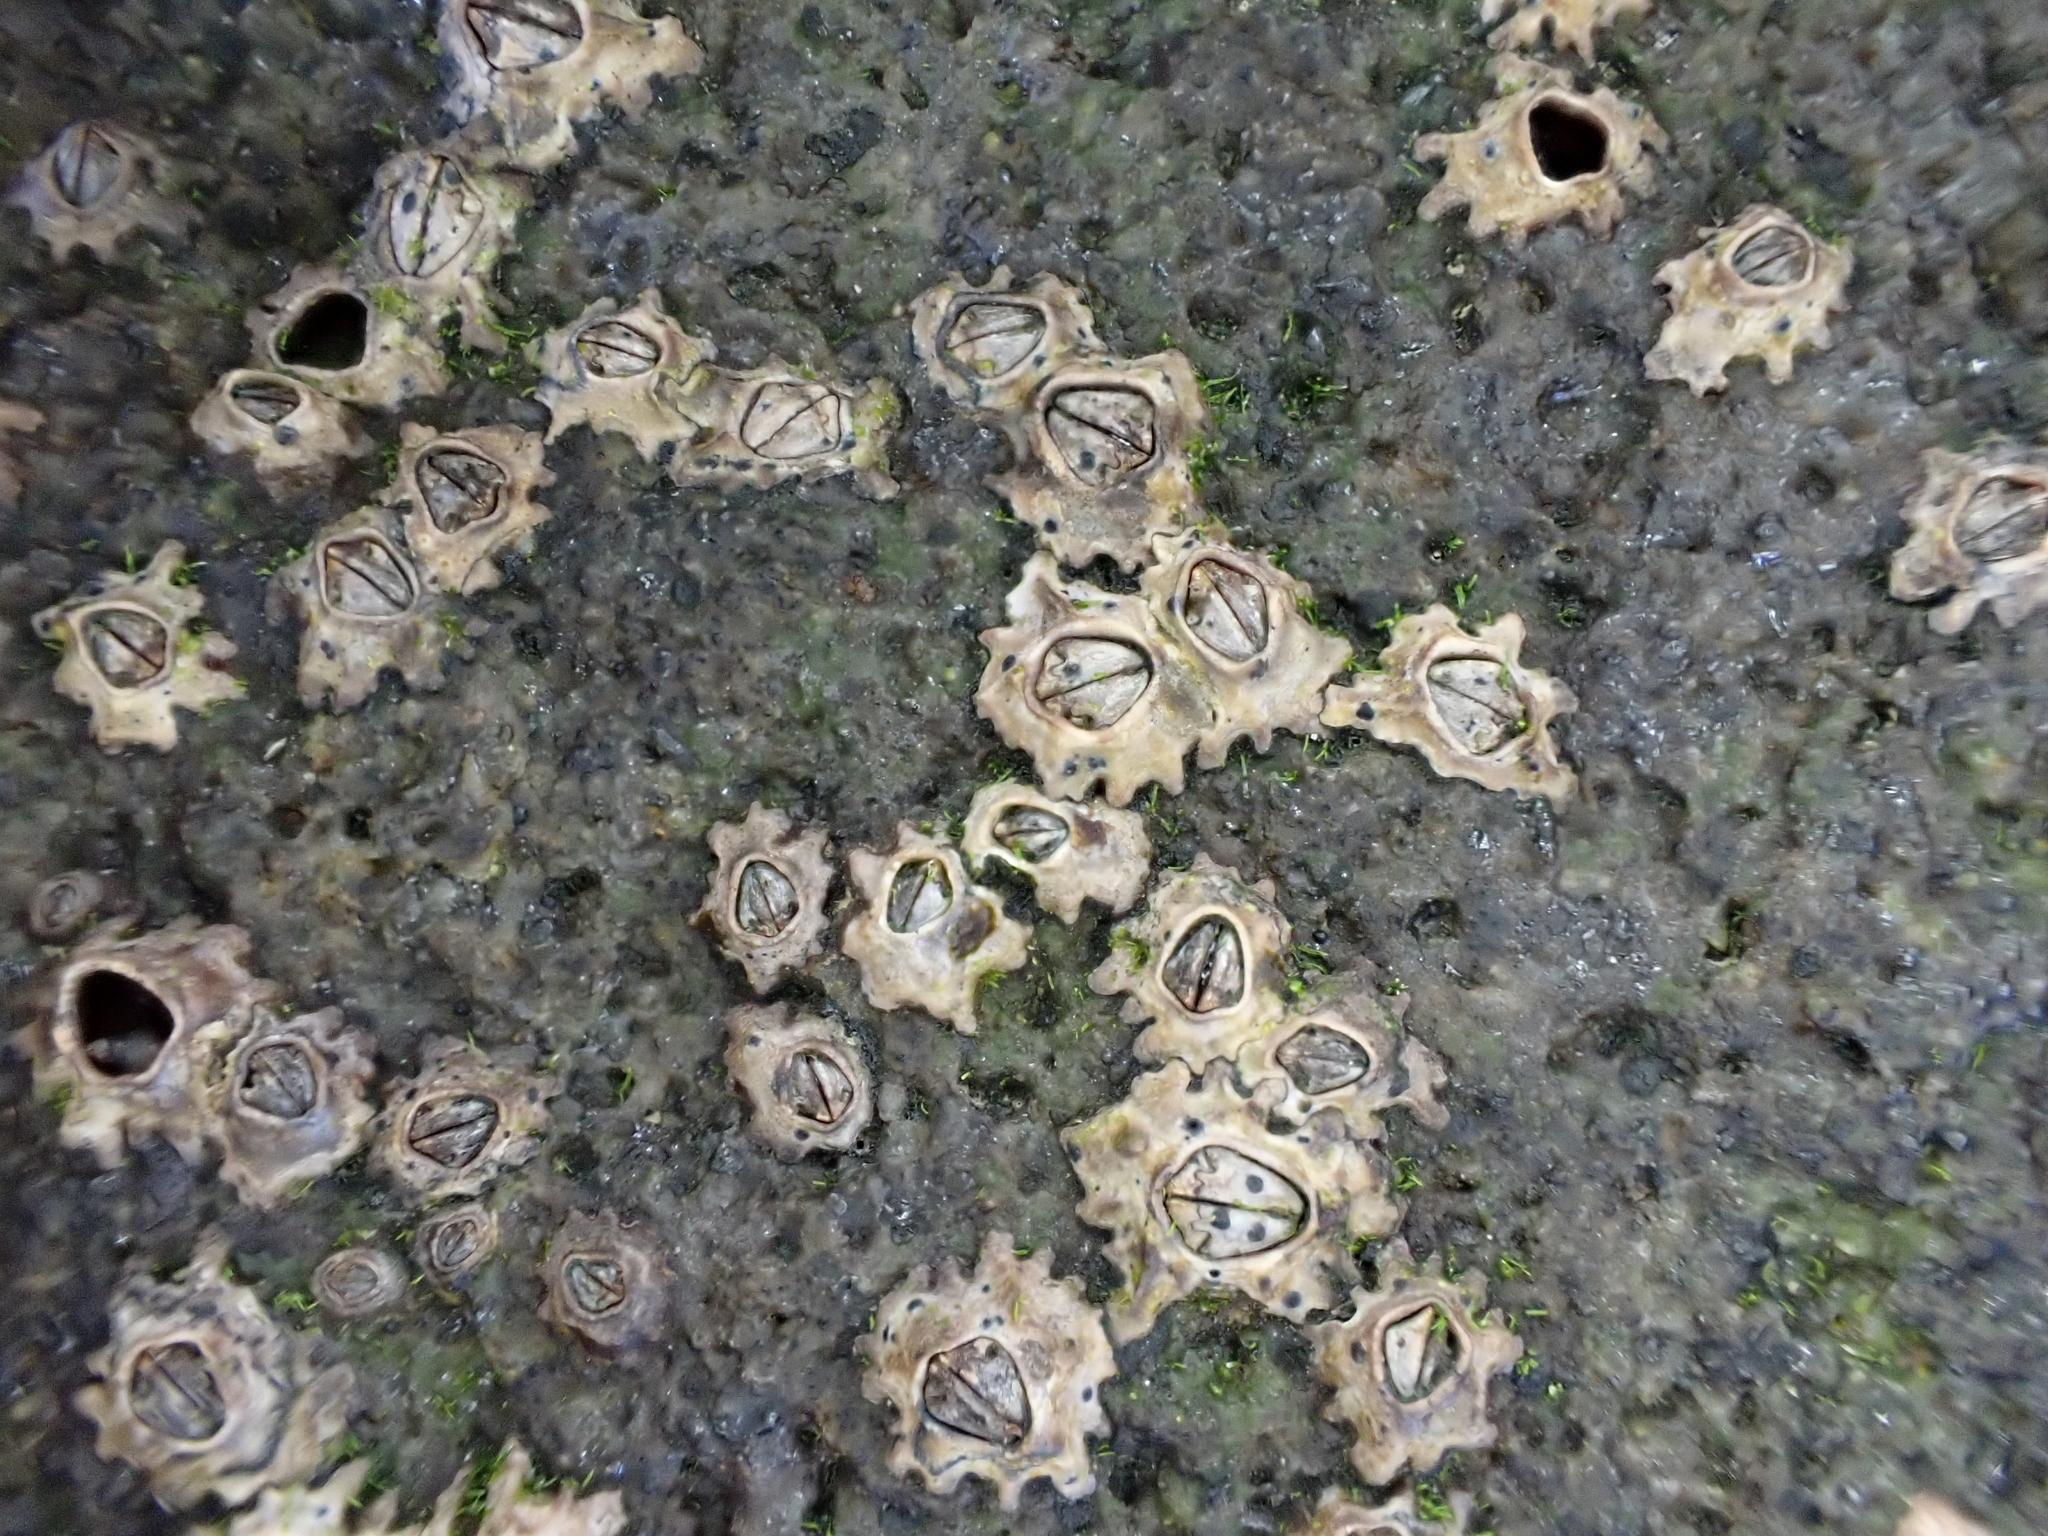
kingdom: Animalia
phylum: Arthropoda
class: Maxillopoda
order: Sessilia
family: Chthamalidae
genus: Chamaesipho
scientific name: Chamaesipho columna
